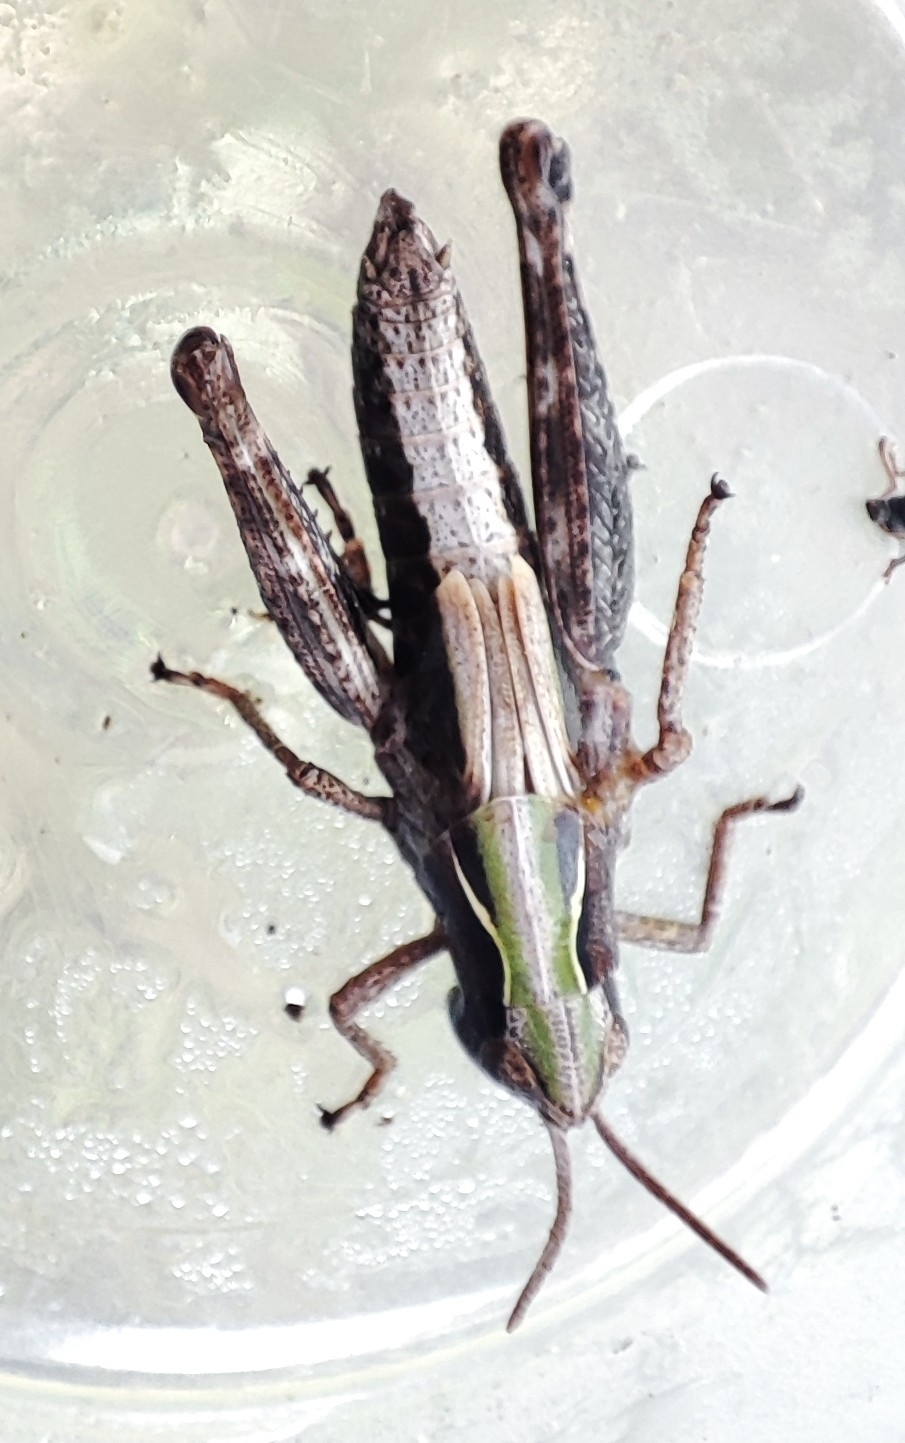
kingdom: Animalia
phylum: Arthropoda
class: Insecta
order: Orthoptera
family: Acrididae
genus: Omocestus
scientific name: Omocestus viridulus
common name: Common green grasshopper
